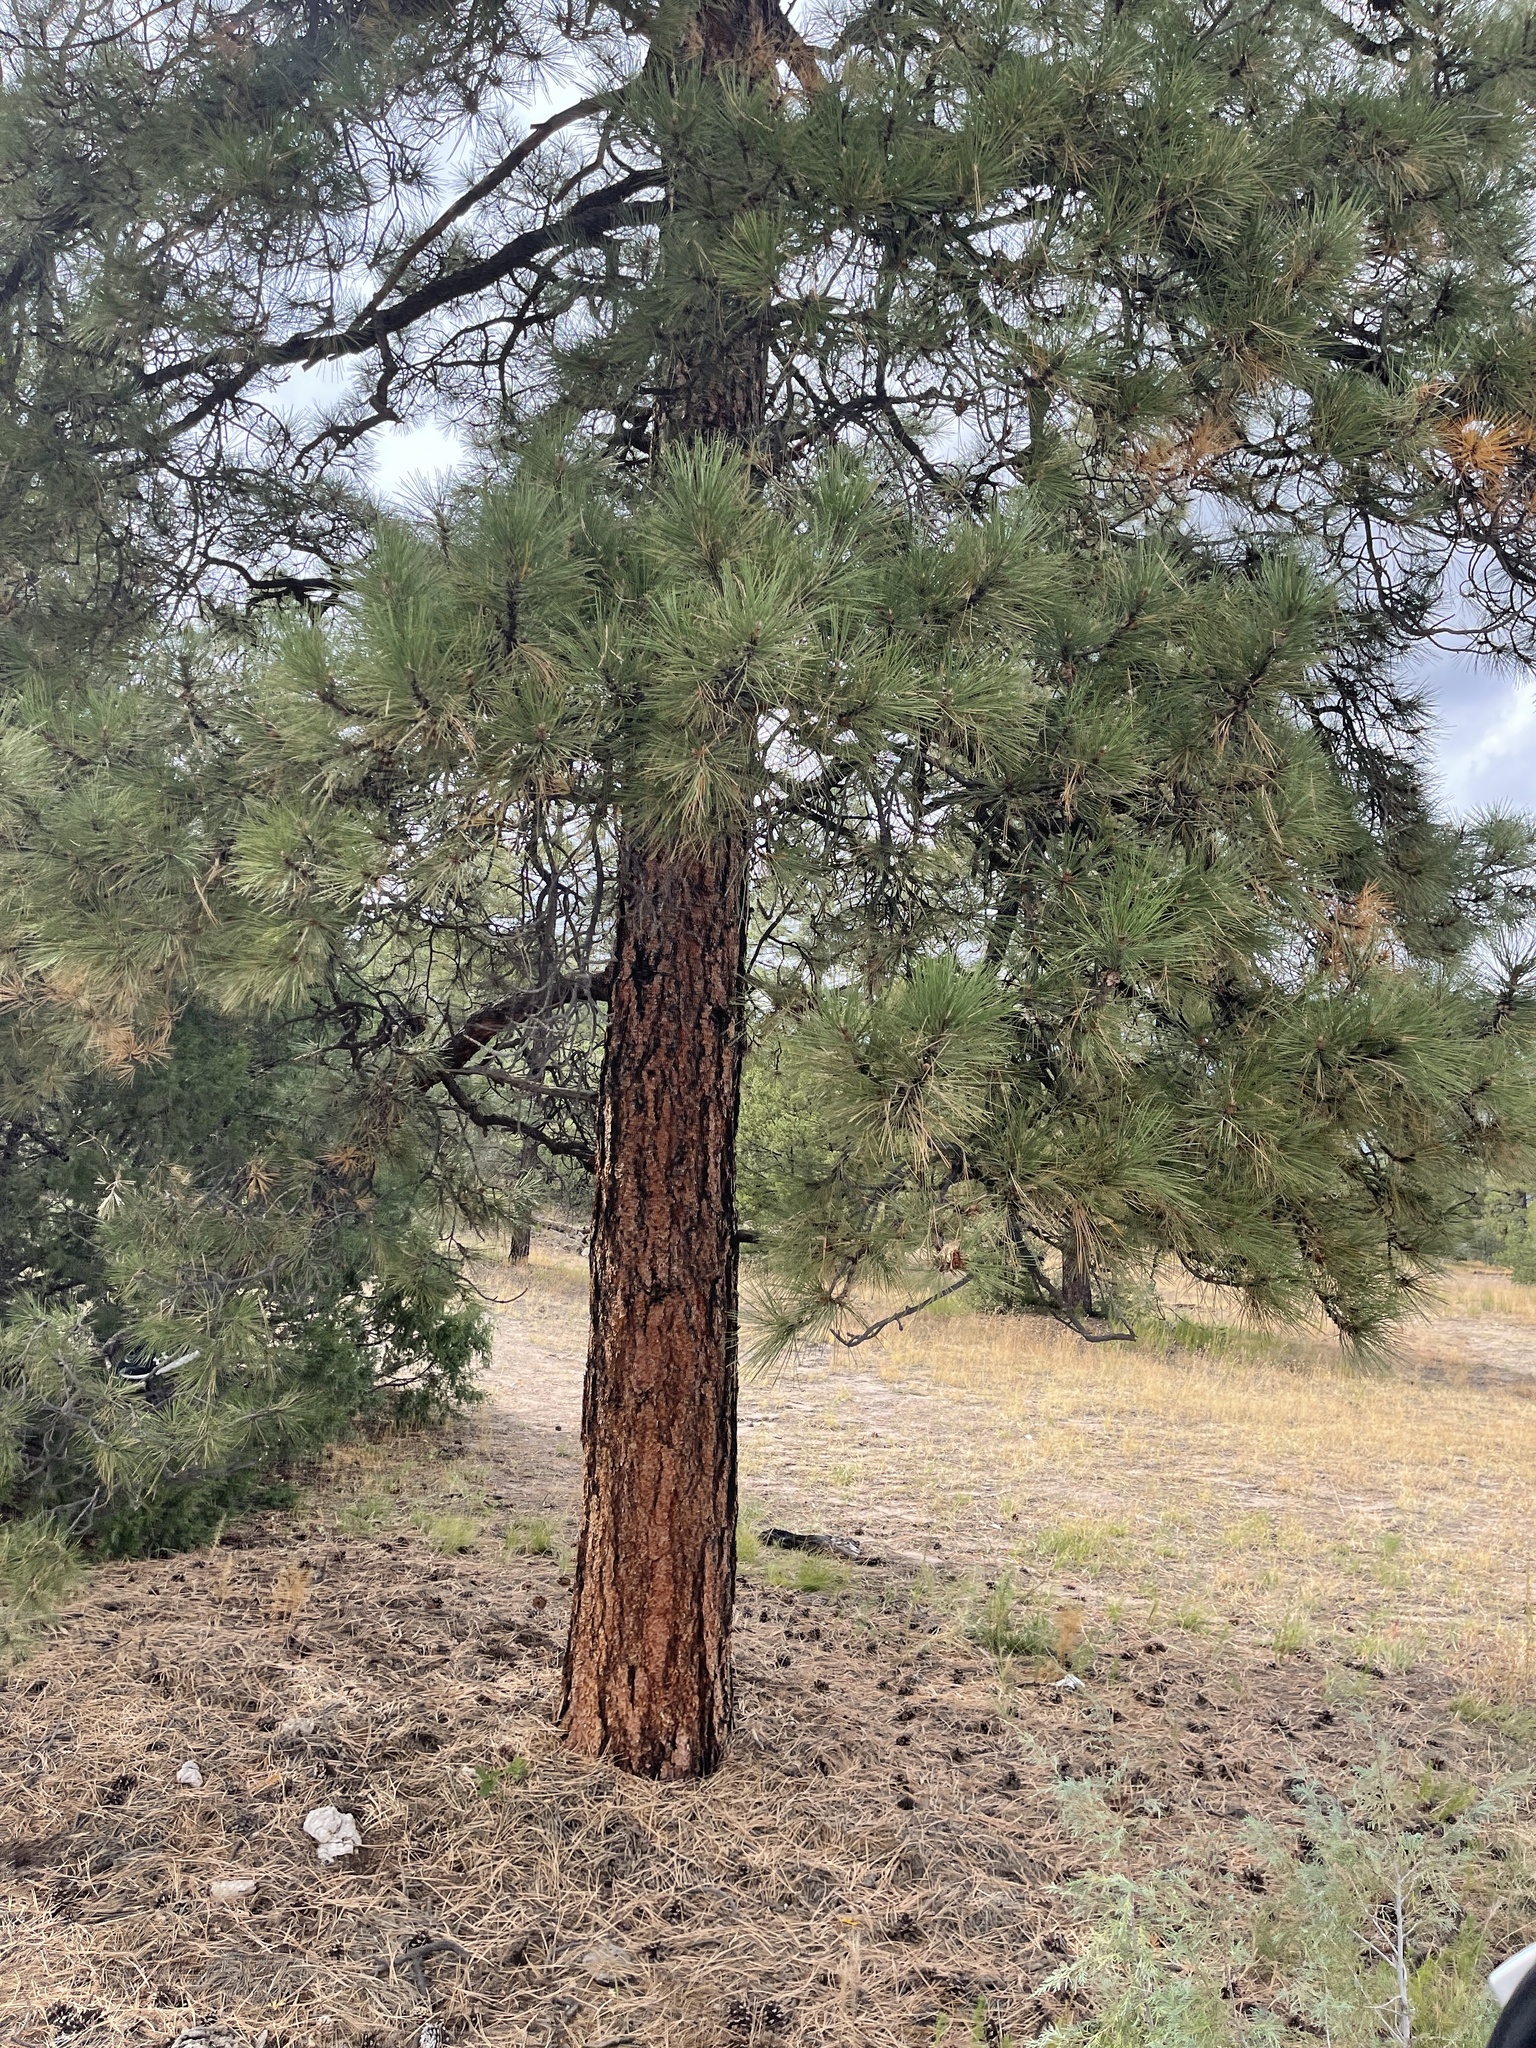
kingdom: Plantae
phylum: Tracheophyta
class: Pinopsida
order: Pinales
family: Pinaceae
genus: Pinus
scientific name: Pinus ponderosa
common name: Western yellow-pine
